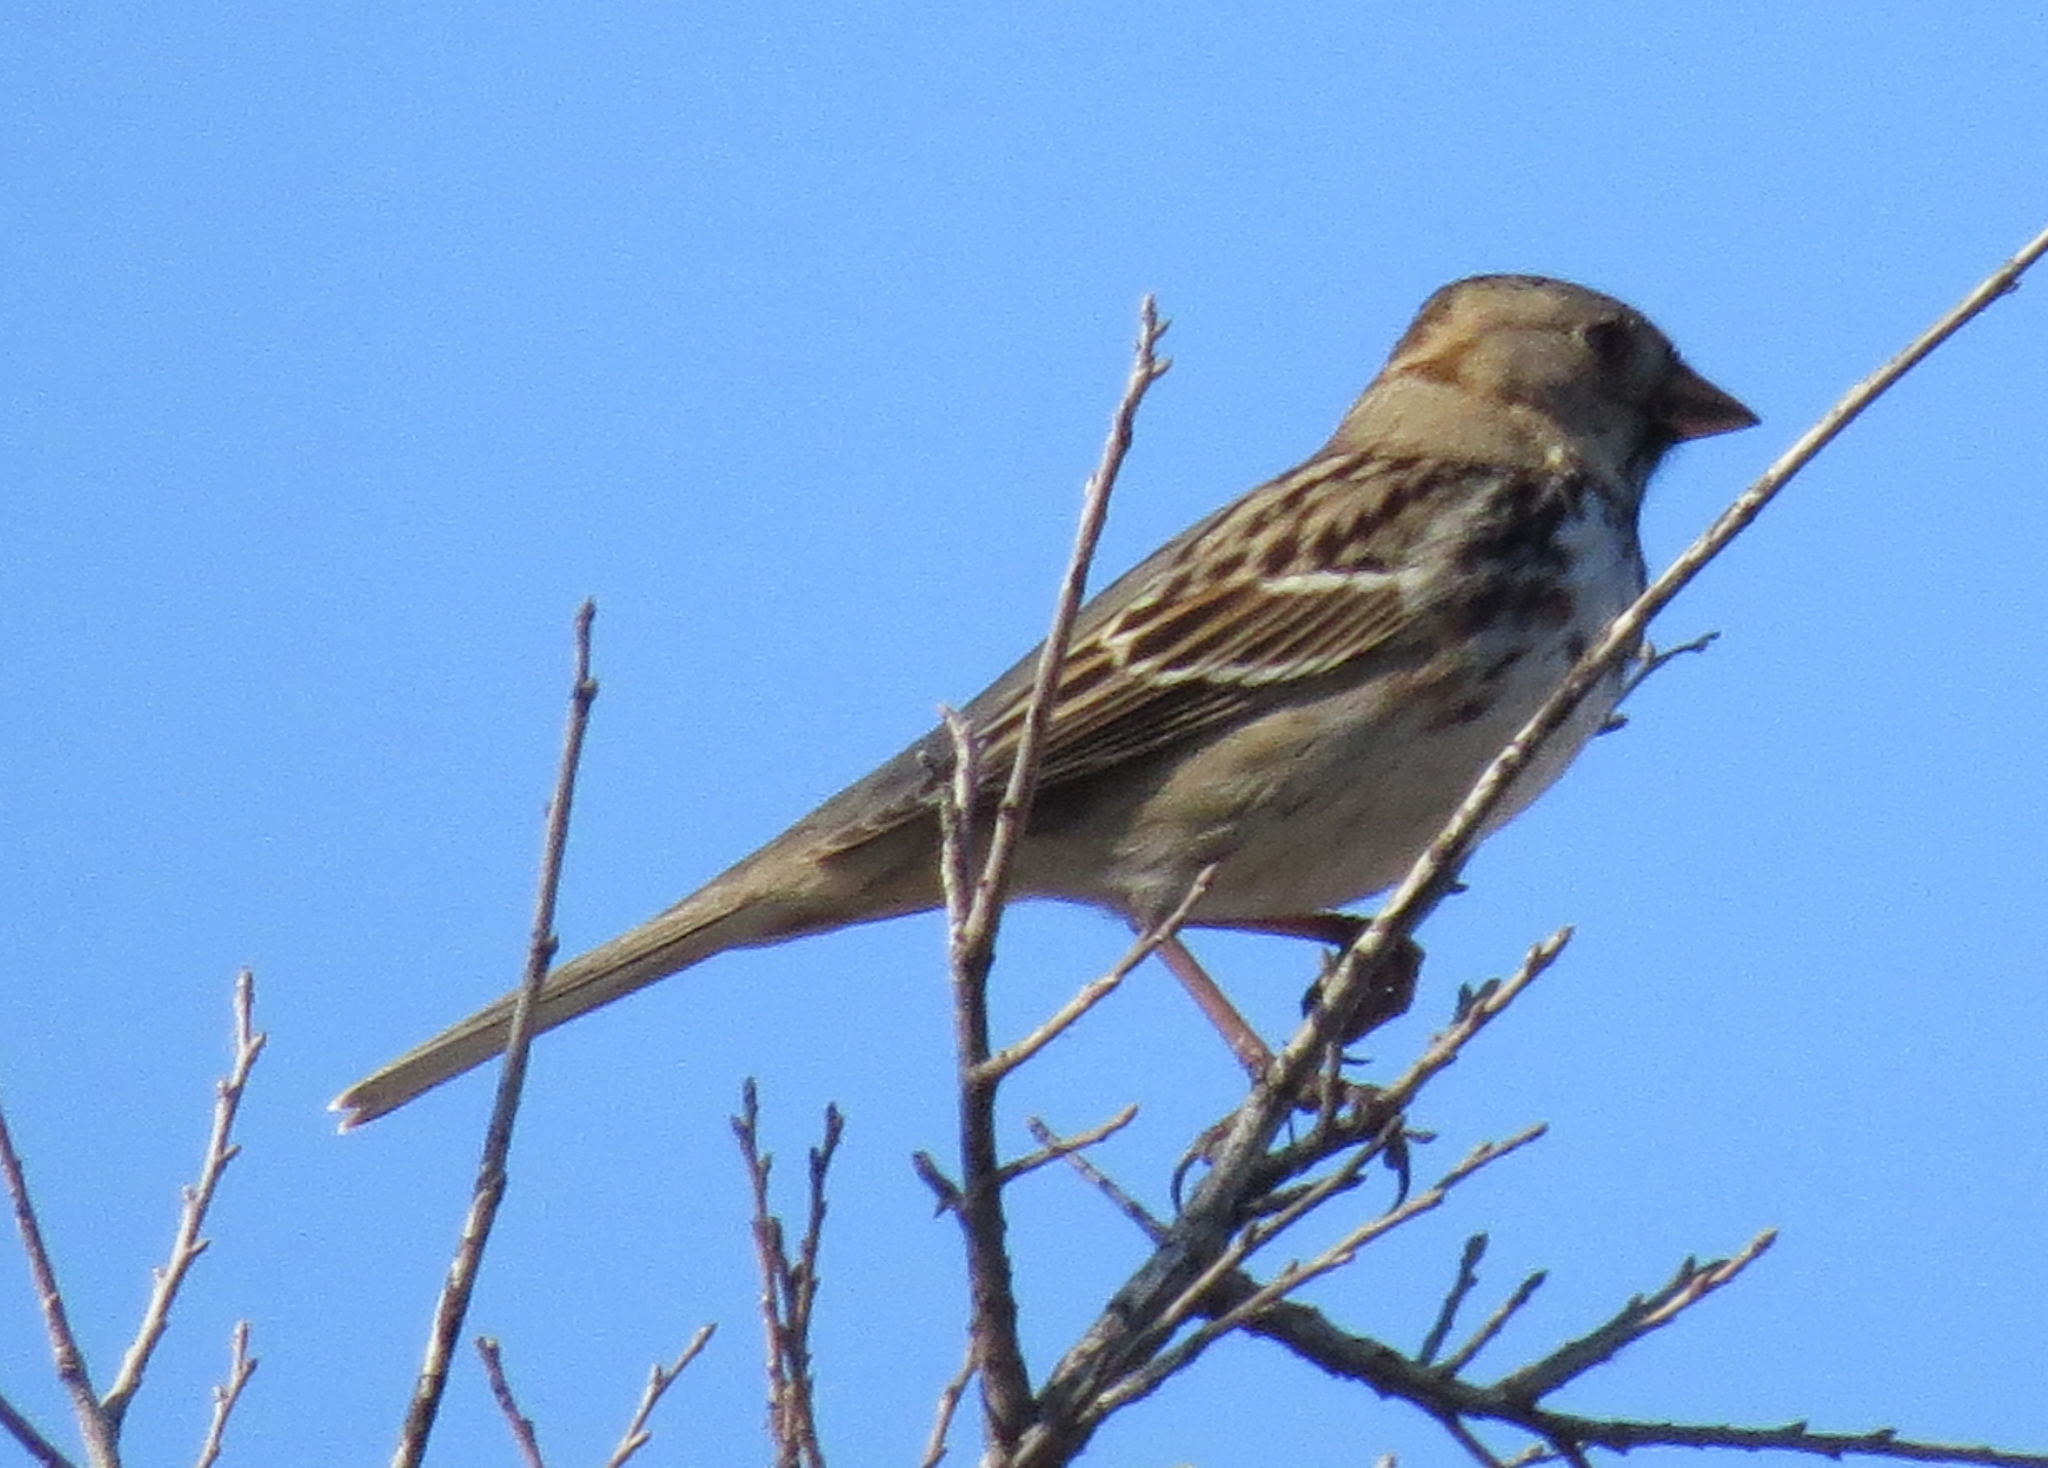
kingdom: Animalia
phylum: Chordata
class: Aves
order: Passeriformes
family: Passerellidae
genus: Zonotrichia
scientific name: Zonotrichia querula
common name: Harris's sparrow
